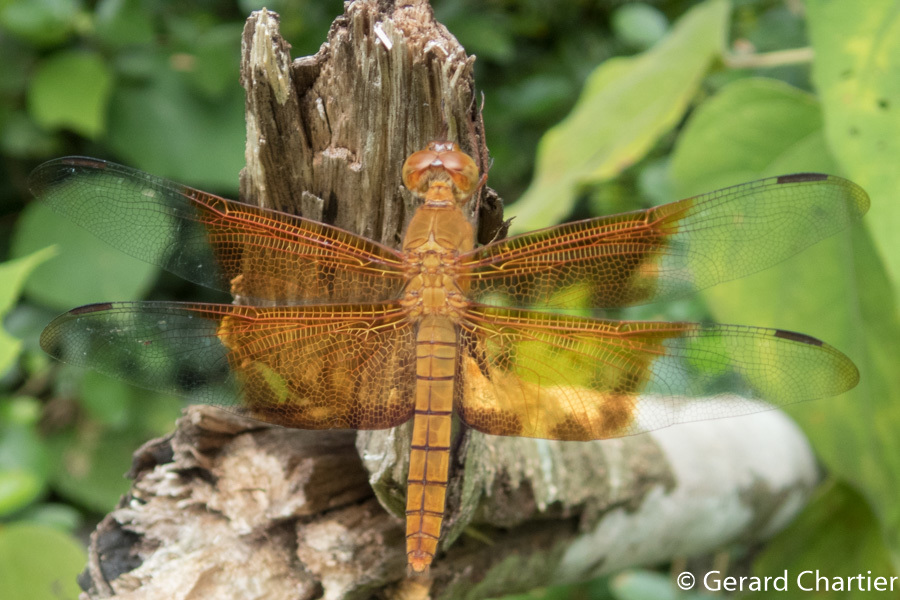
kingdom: Animalia
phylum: Arthropoda
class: Insecta
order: Odonata
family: Libellulidae
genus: Camacinia
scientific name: Camacinia gigantea
